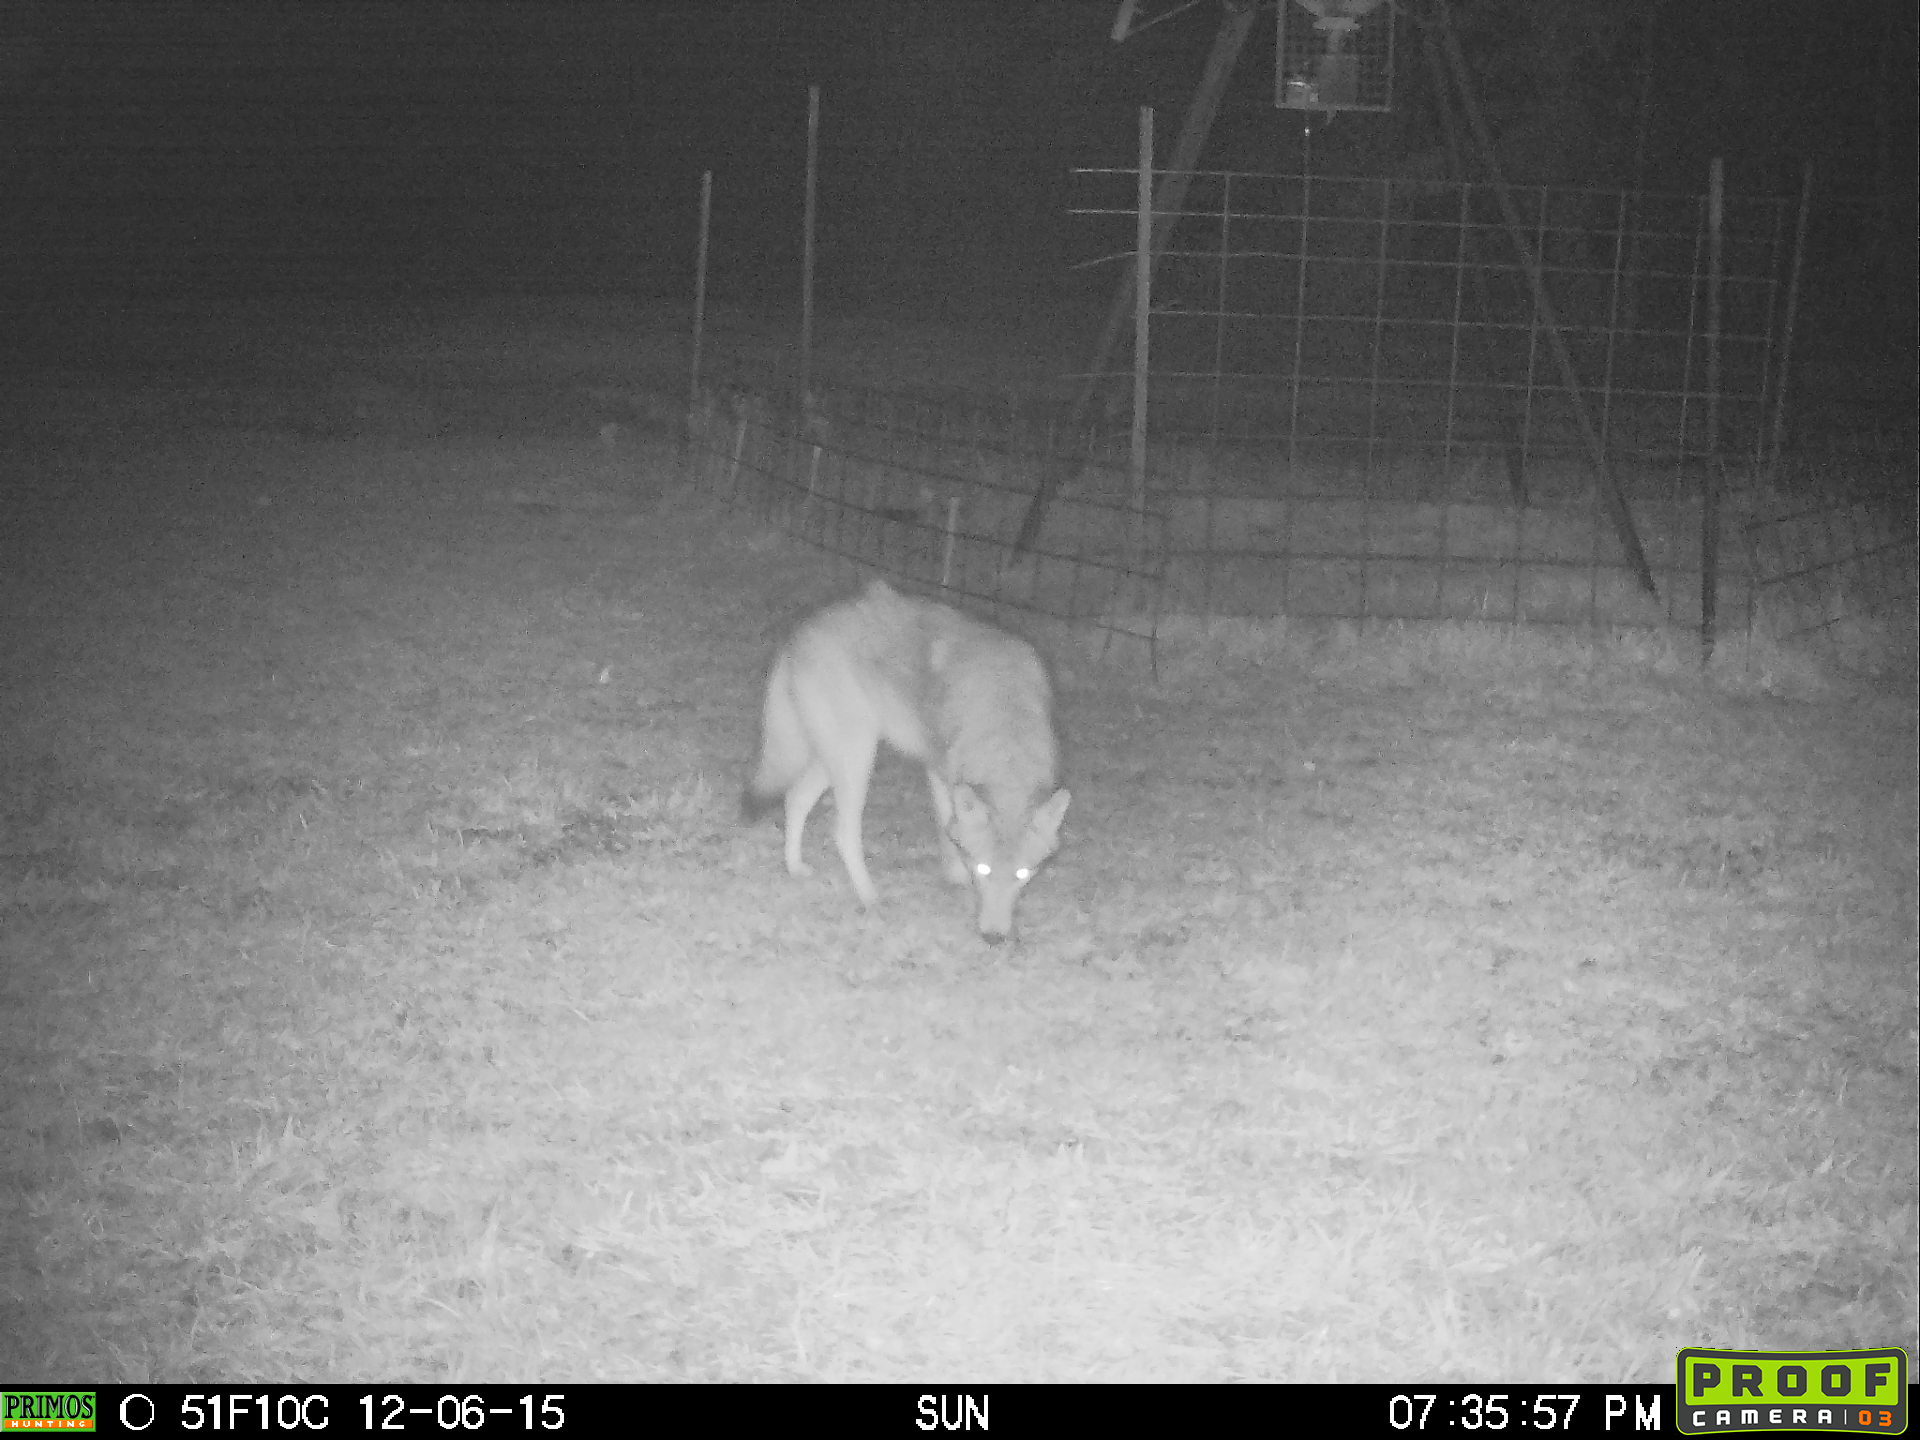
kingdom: Animalia
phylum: Chordata
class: Mammalia
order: Carnivora
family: Canidae
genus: Canis
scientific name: Canis latrans
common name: Coyote
